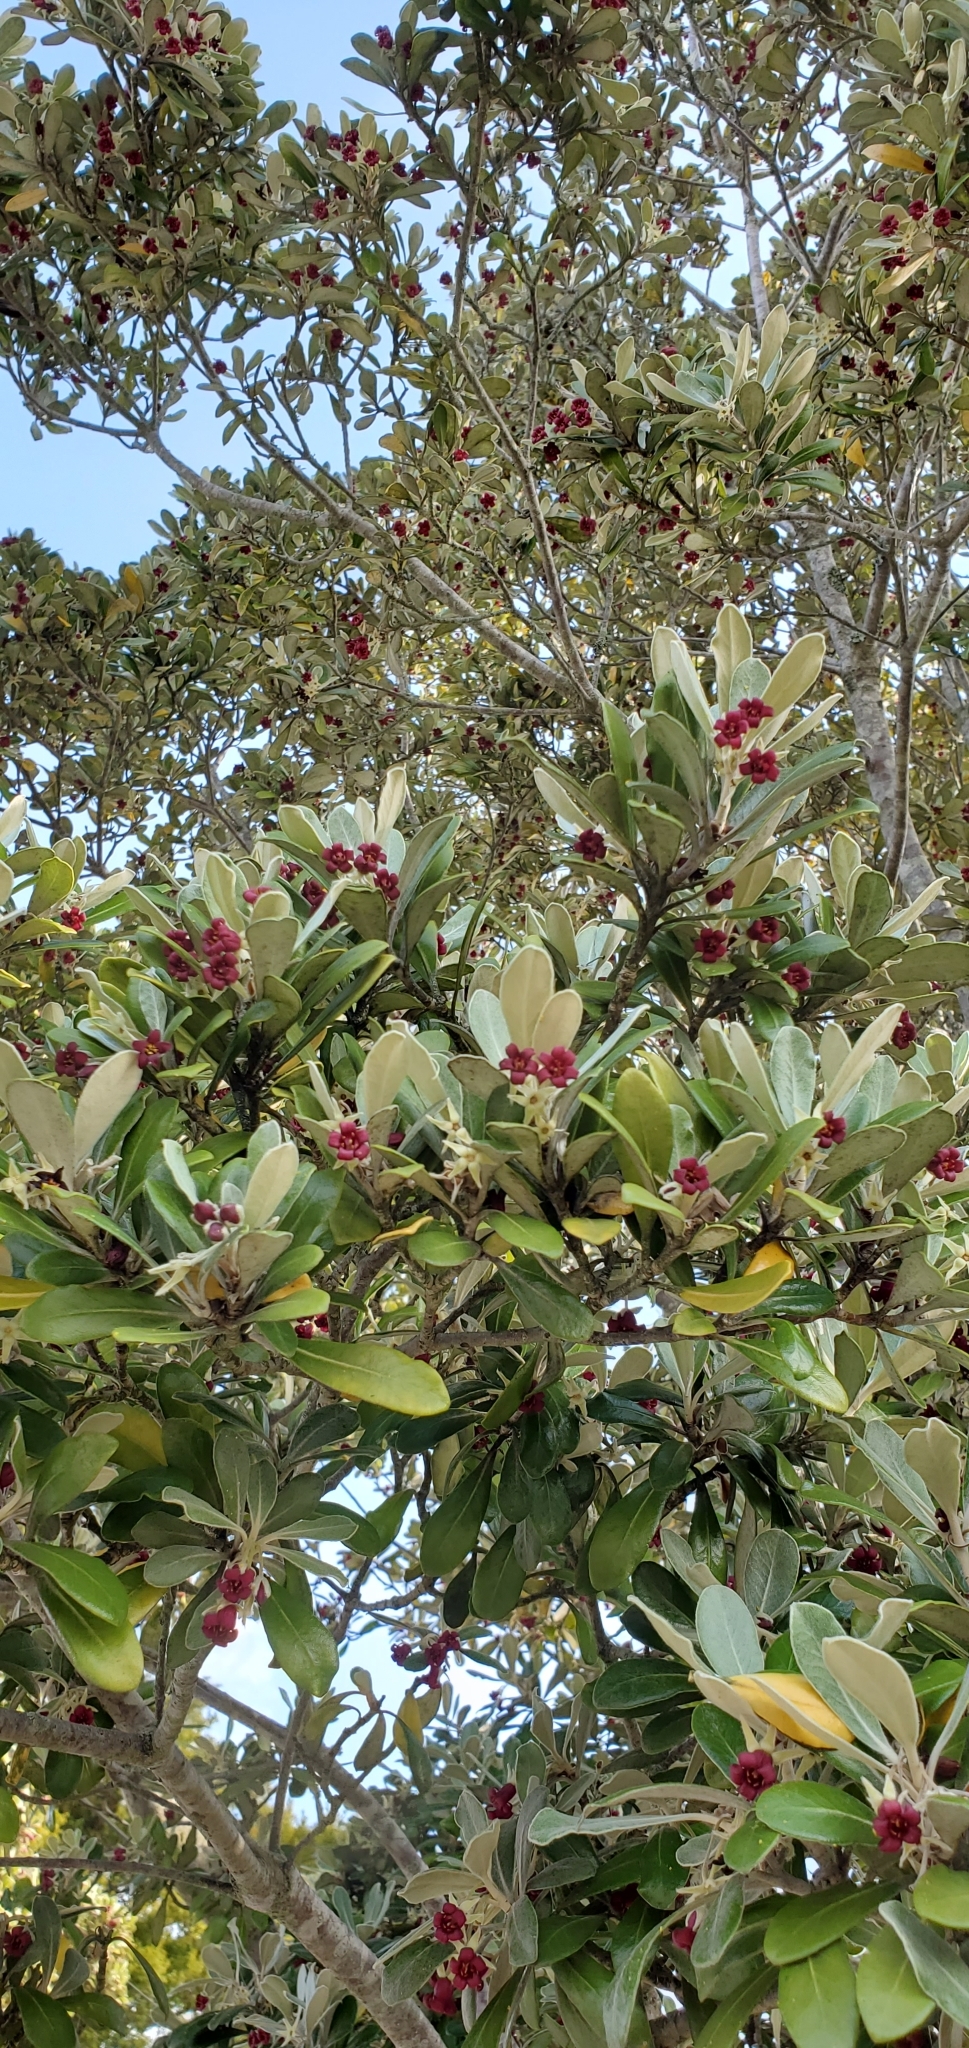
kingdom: Plantae
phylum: Tracheophyta
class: Magnoliopsida
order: Apiales
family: Pittosporaceae
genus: Pittosporum
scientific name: Pittosporum crassifolium
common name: Karo
